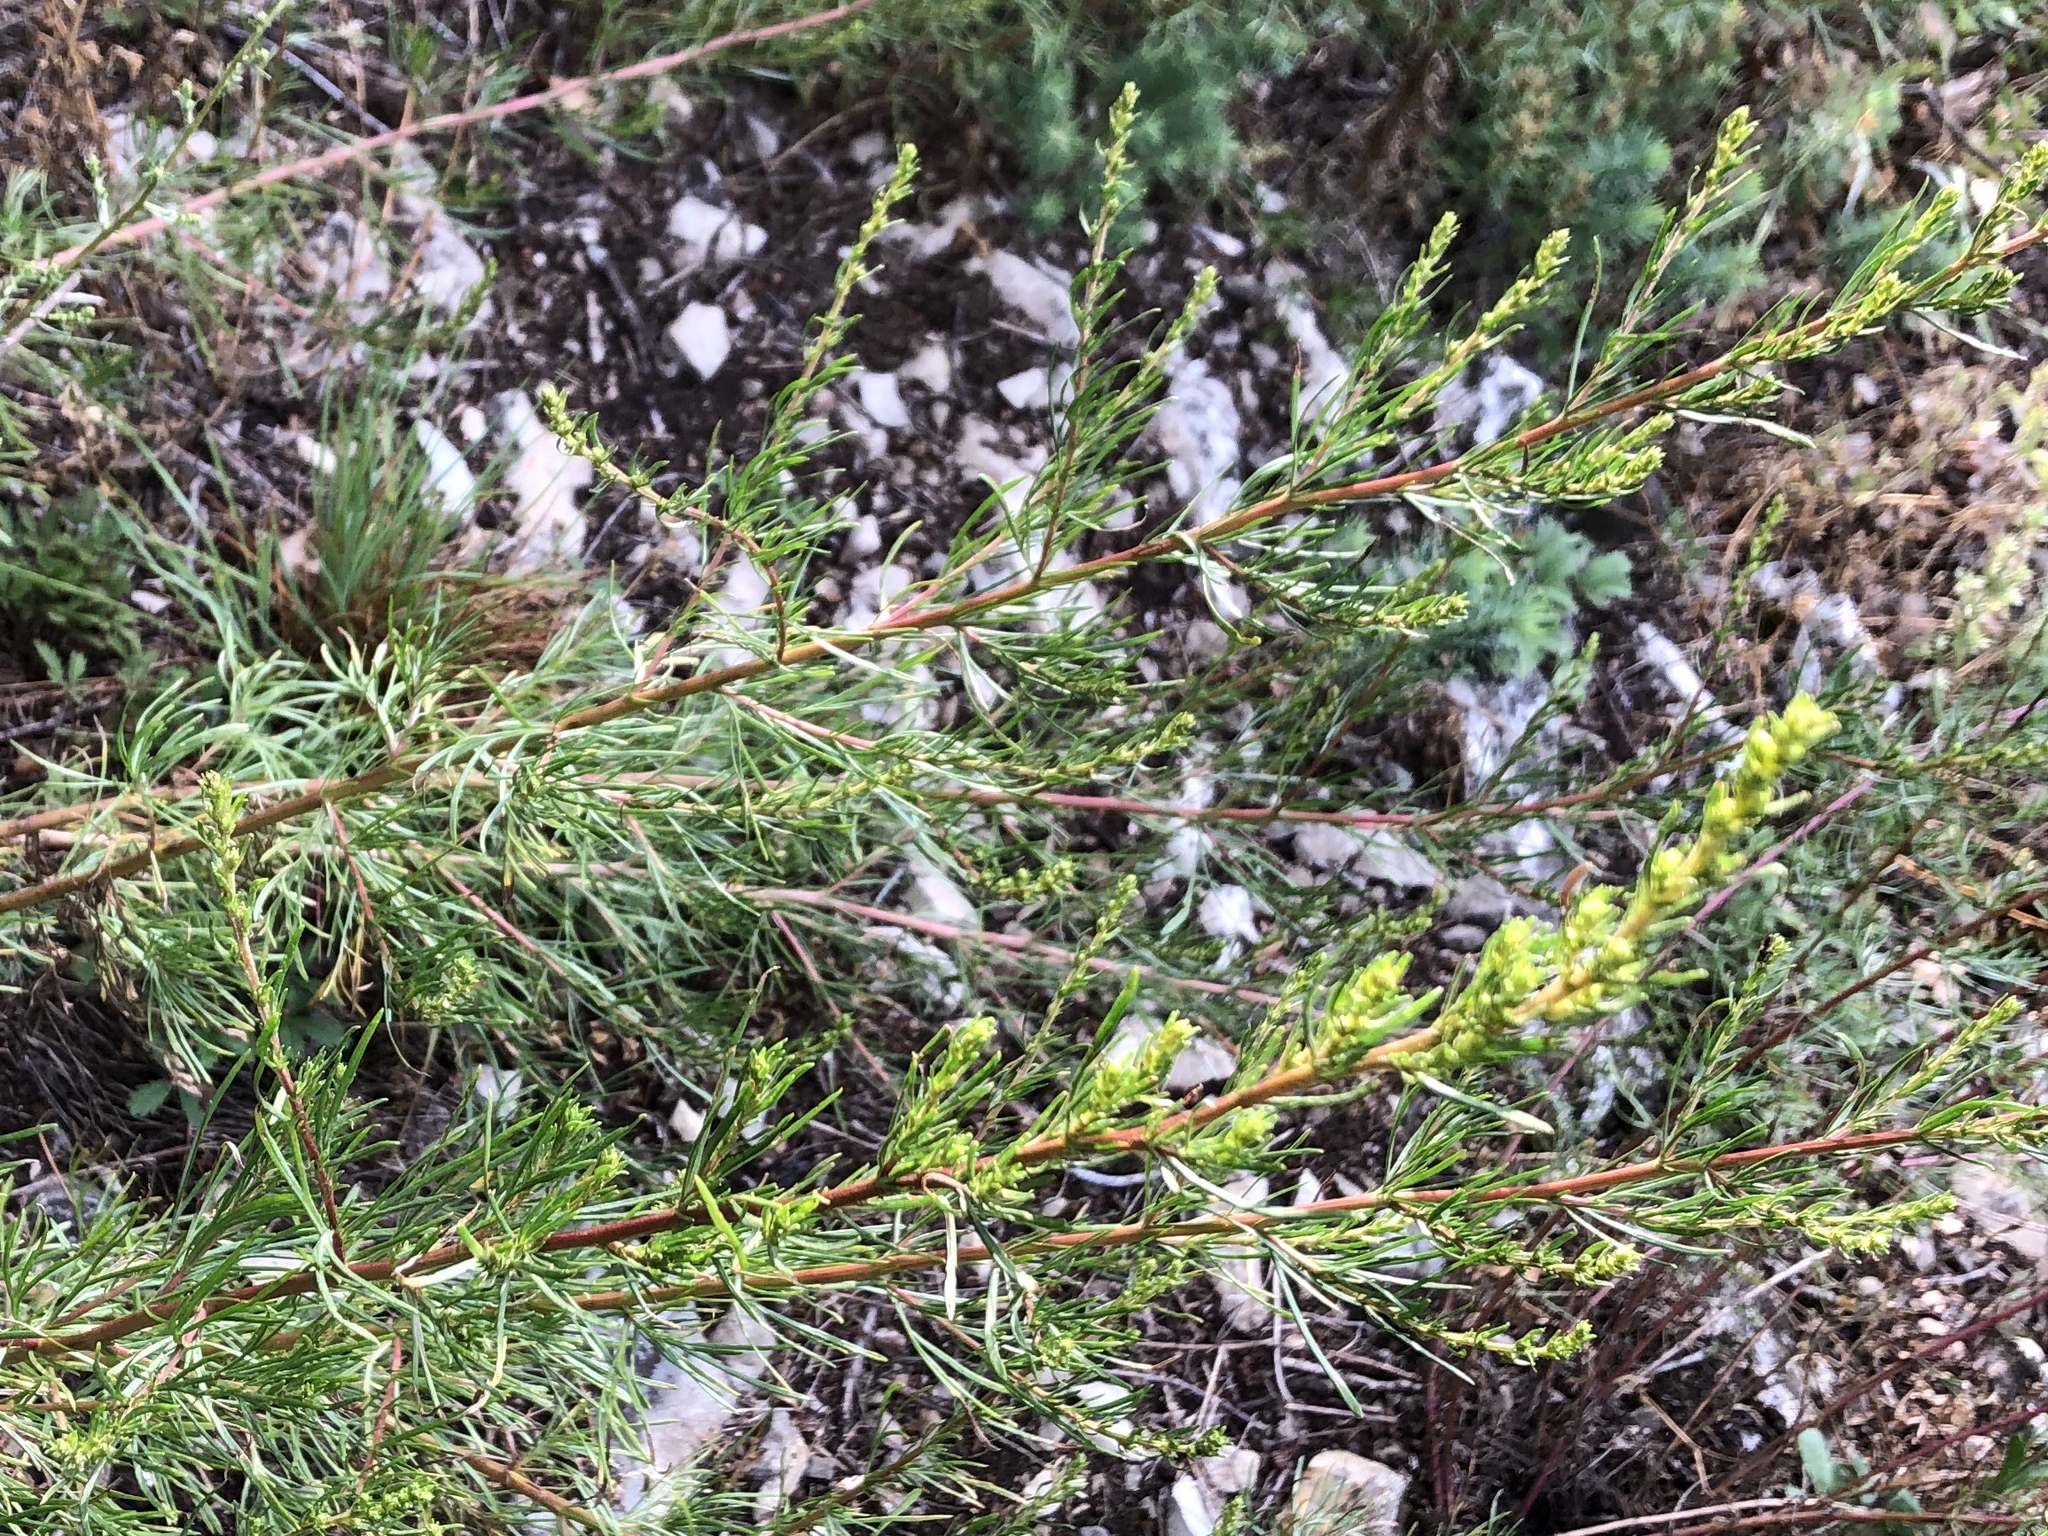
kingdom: Plantae
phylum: Tracheophyta
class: Magnoliopsida
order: Asterales
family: Asteraceae
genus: Artemisia
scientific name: Artemisia campestris
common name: Field wormwood
